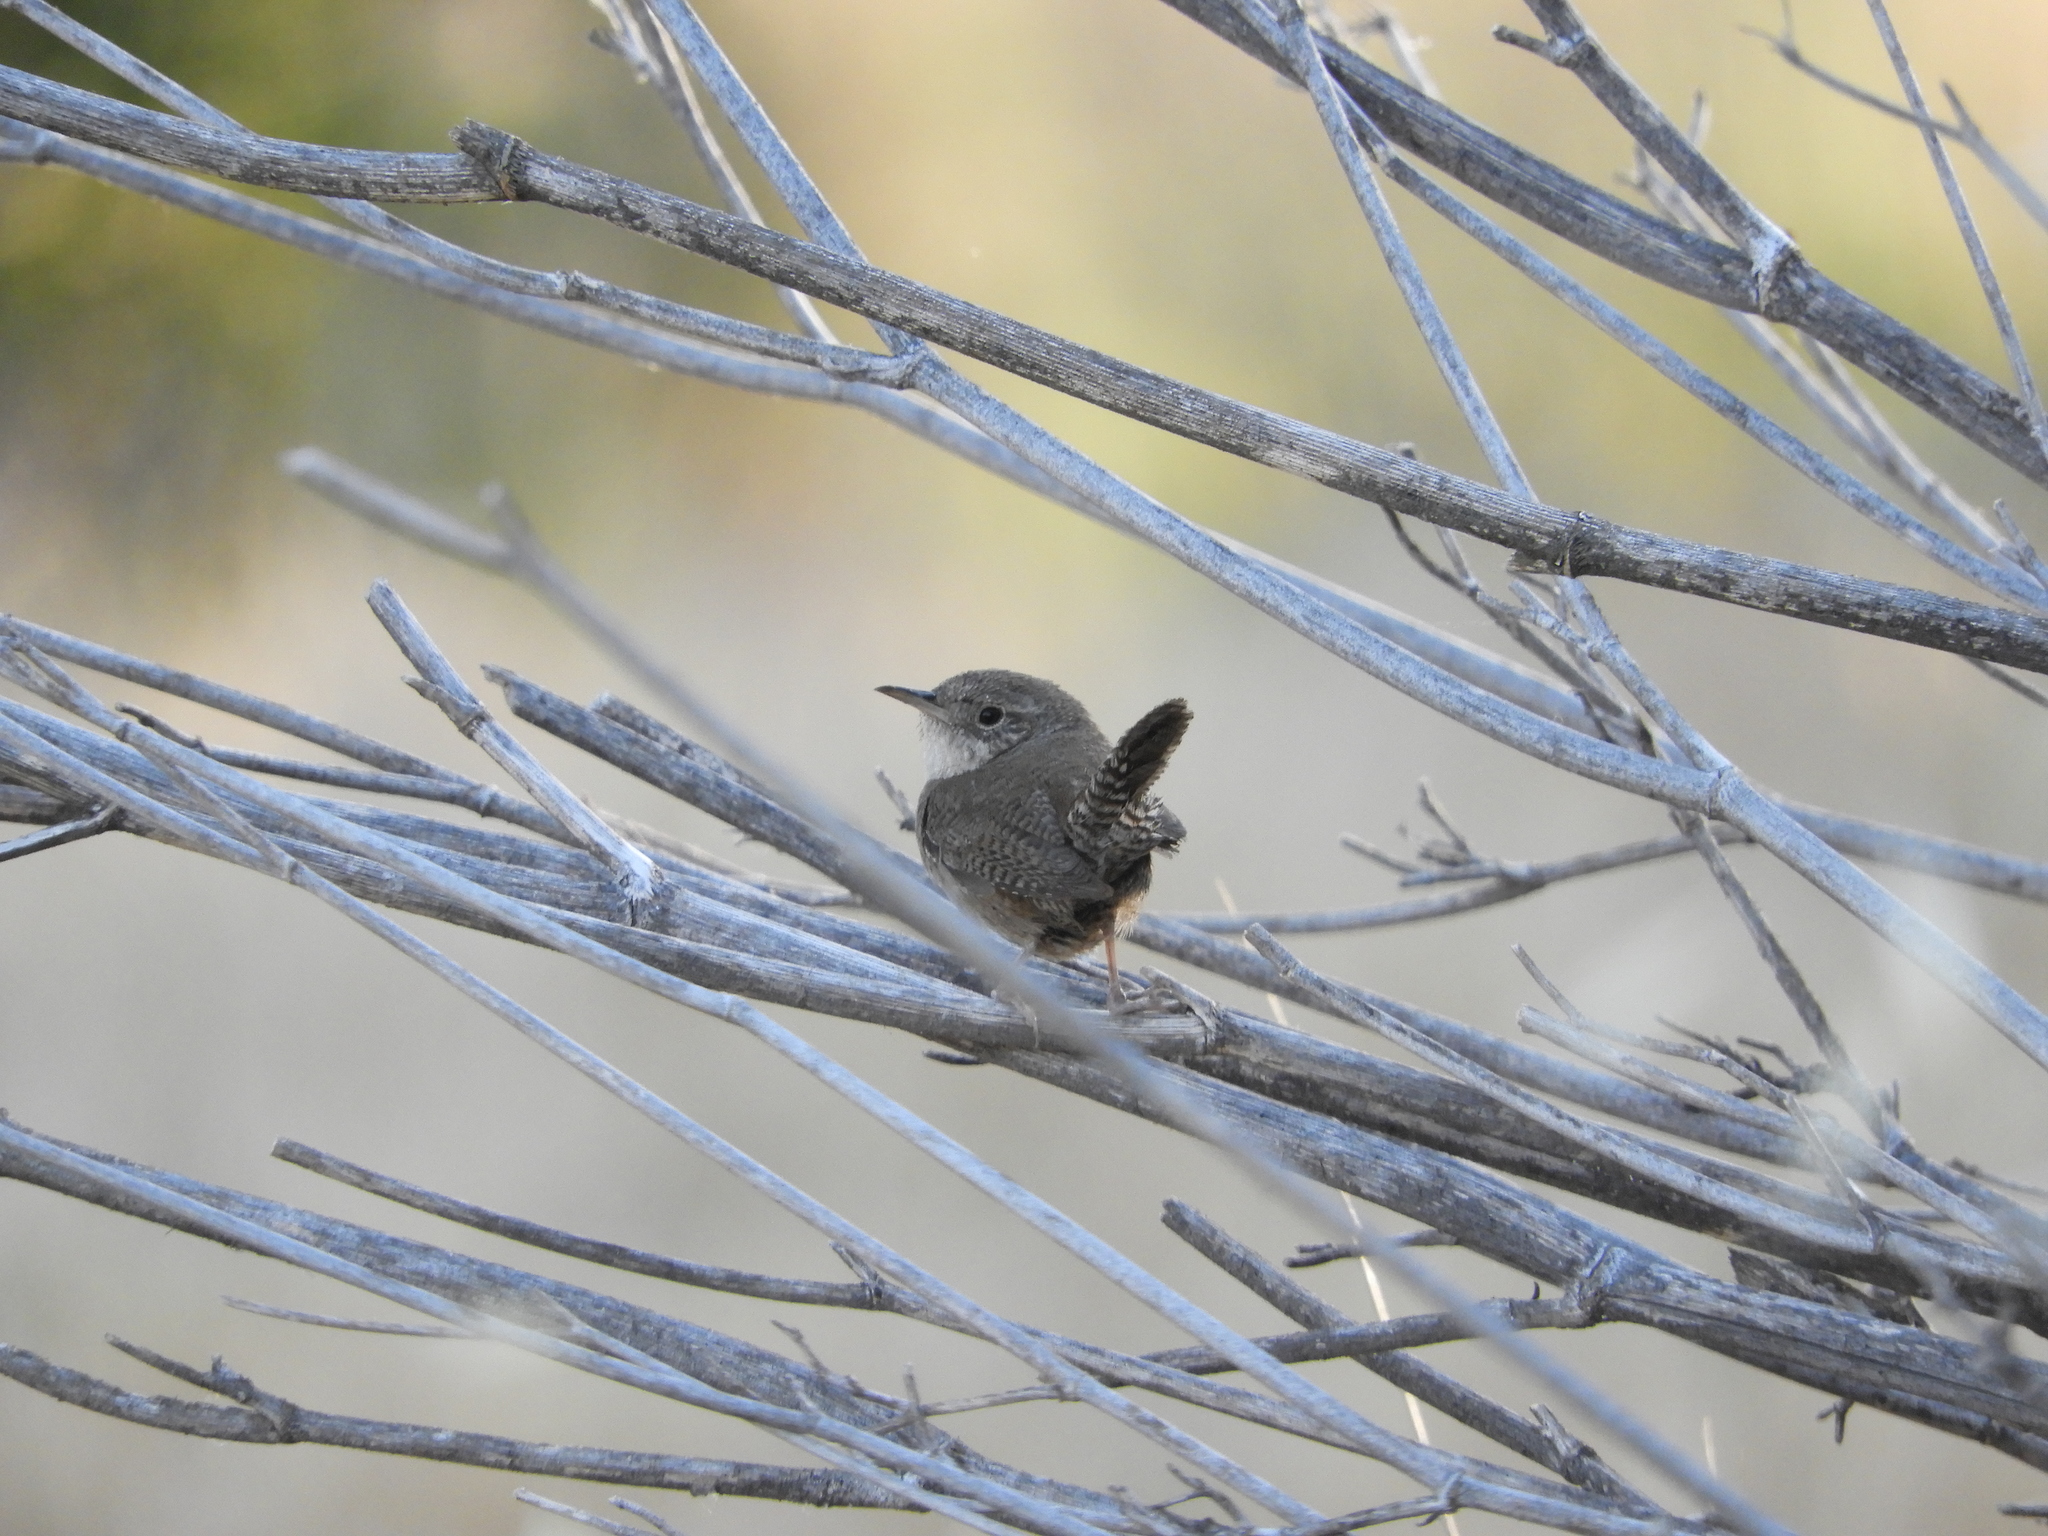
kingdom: Animalia
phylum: Chordata
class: Aves
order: Passeriformes
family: Troglodytidae
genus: Troglodytes
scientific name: Troglodytes aedon
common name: House wren
